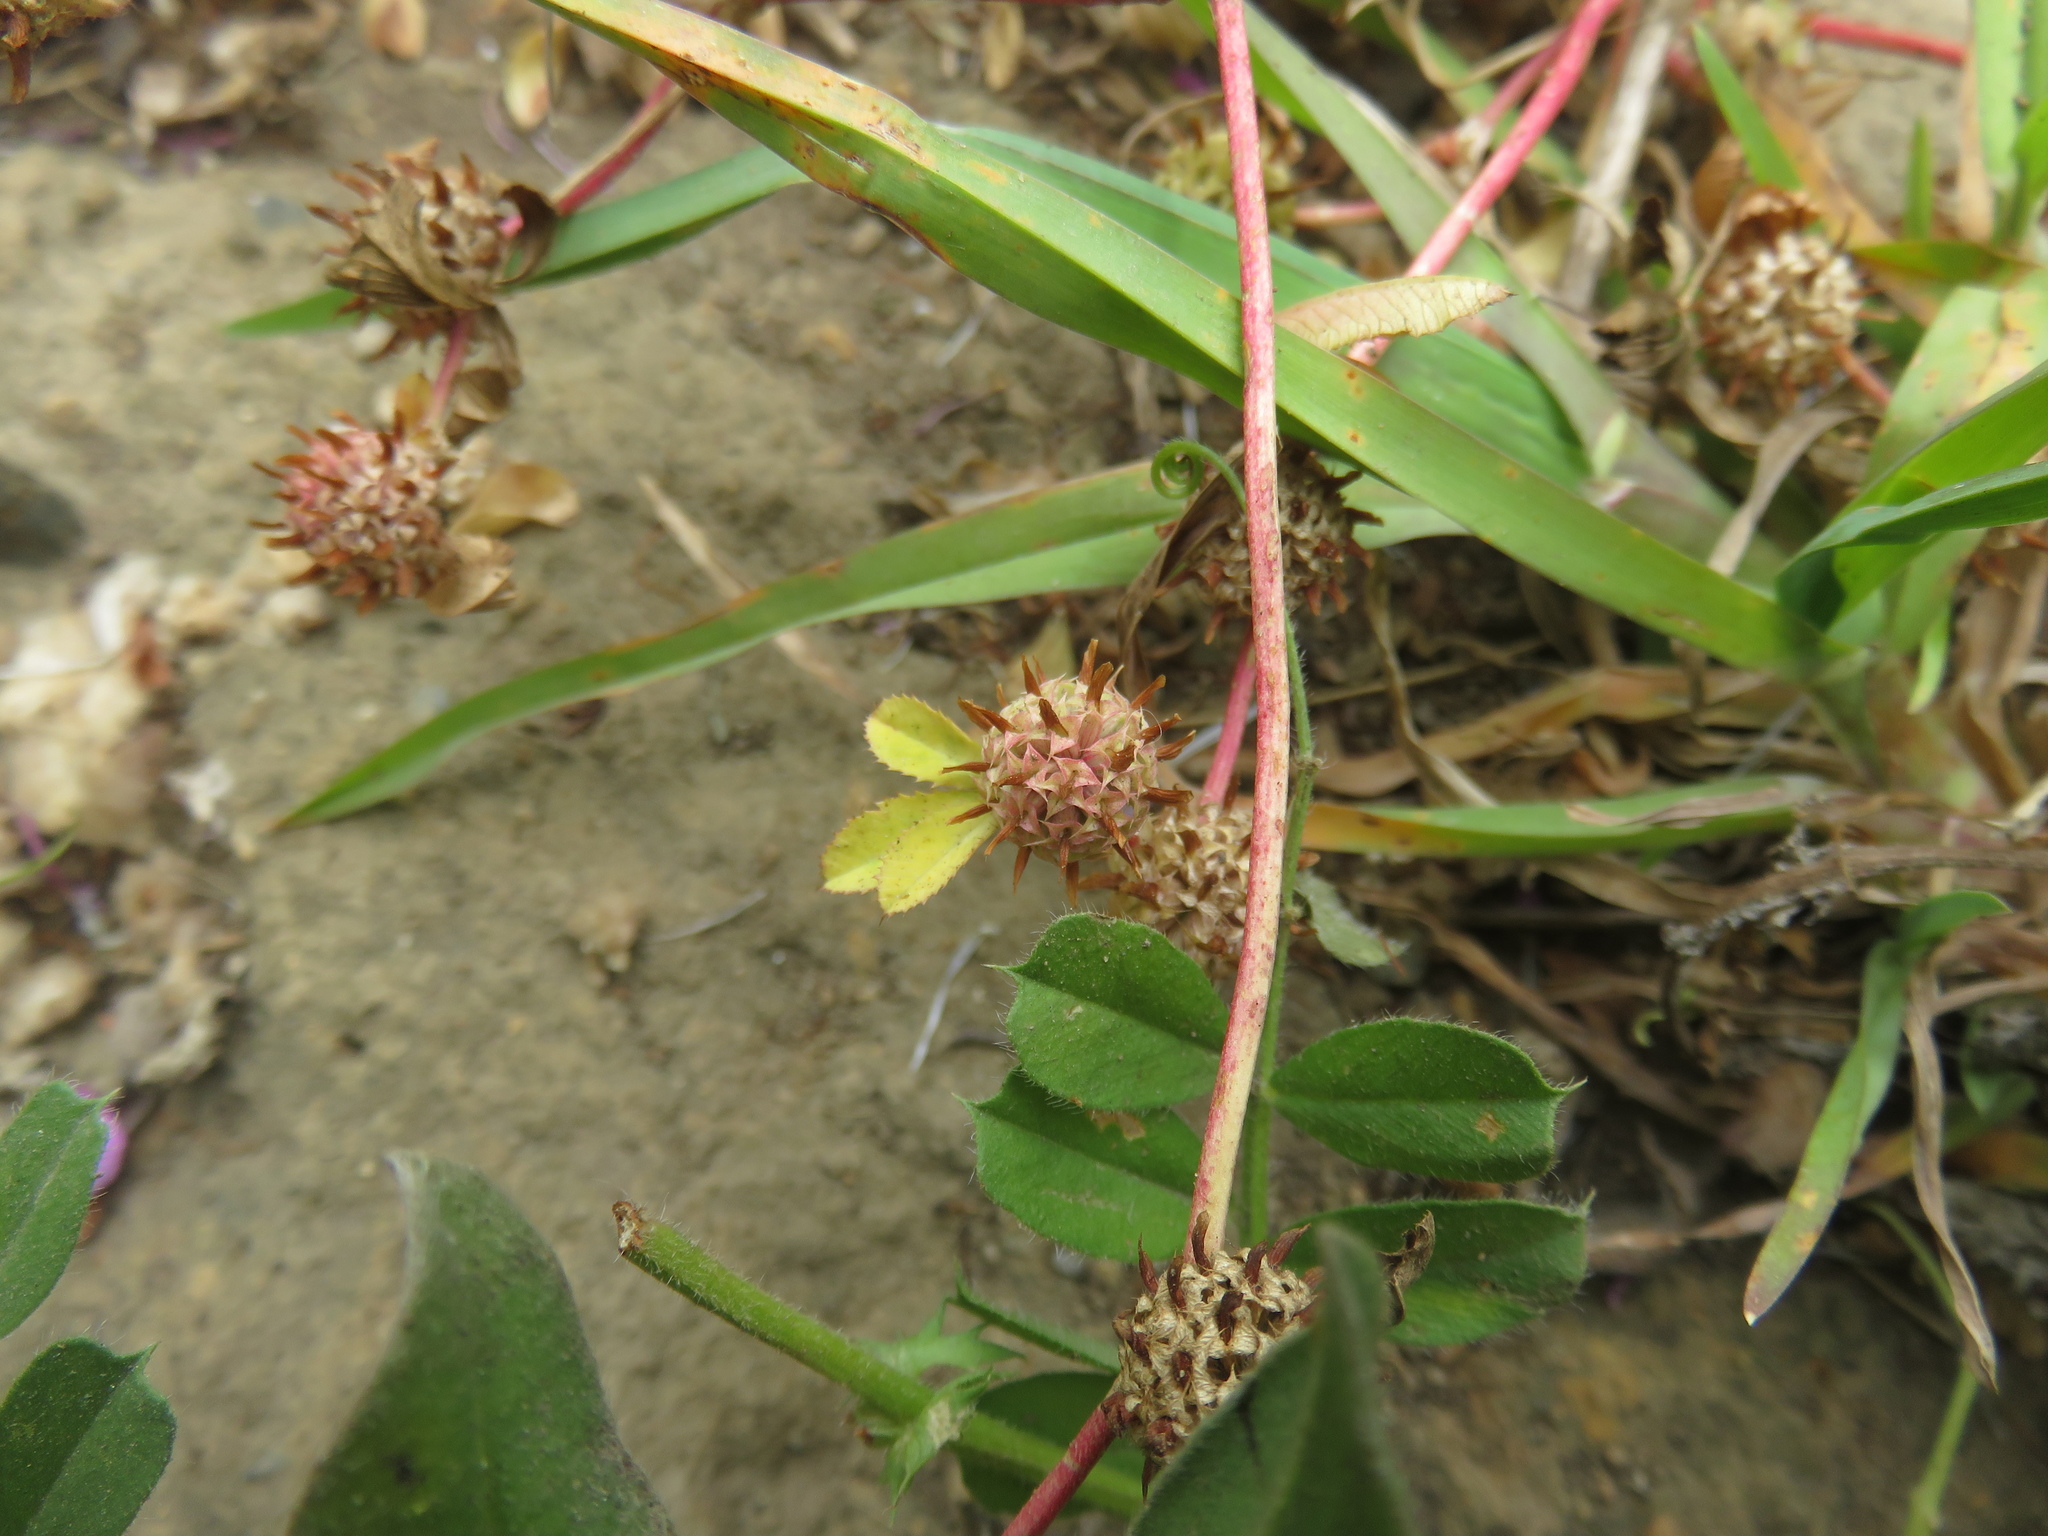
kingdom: Plantae
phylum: Tracheophyta
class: Magnoliopsida
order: Fabales
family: Fabaceae
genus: Trifolium
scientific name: Trifolium glomeratum
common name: Clustered clover
